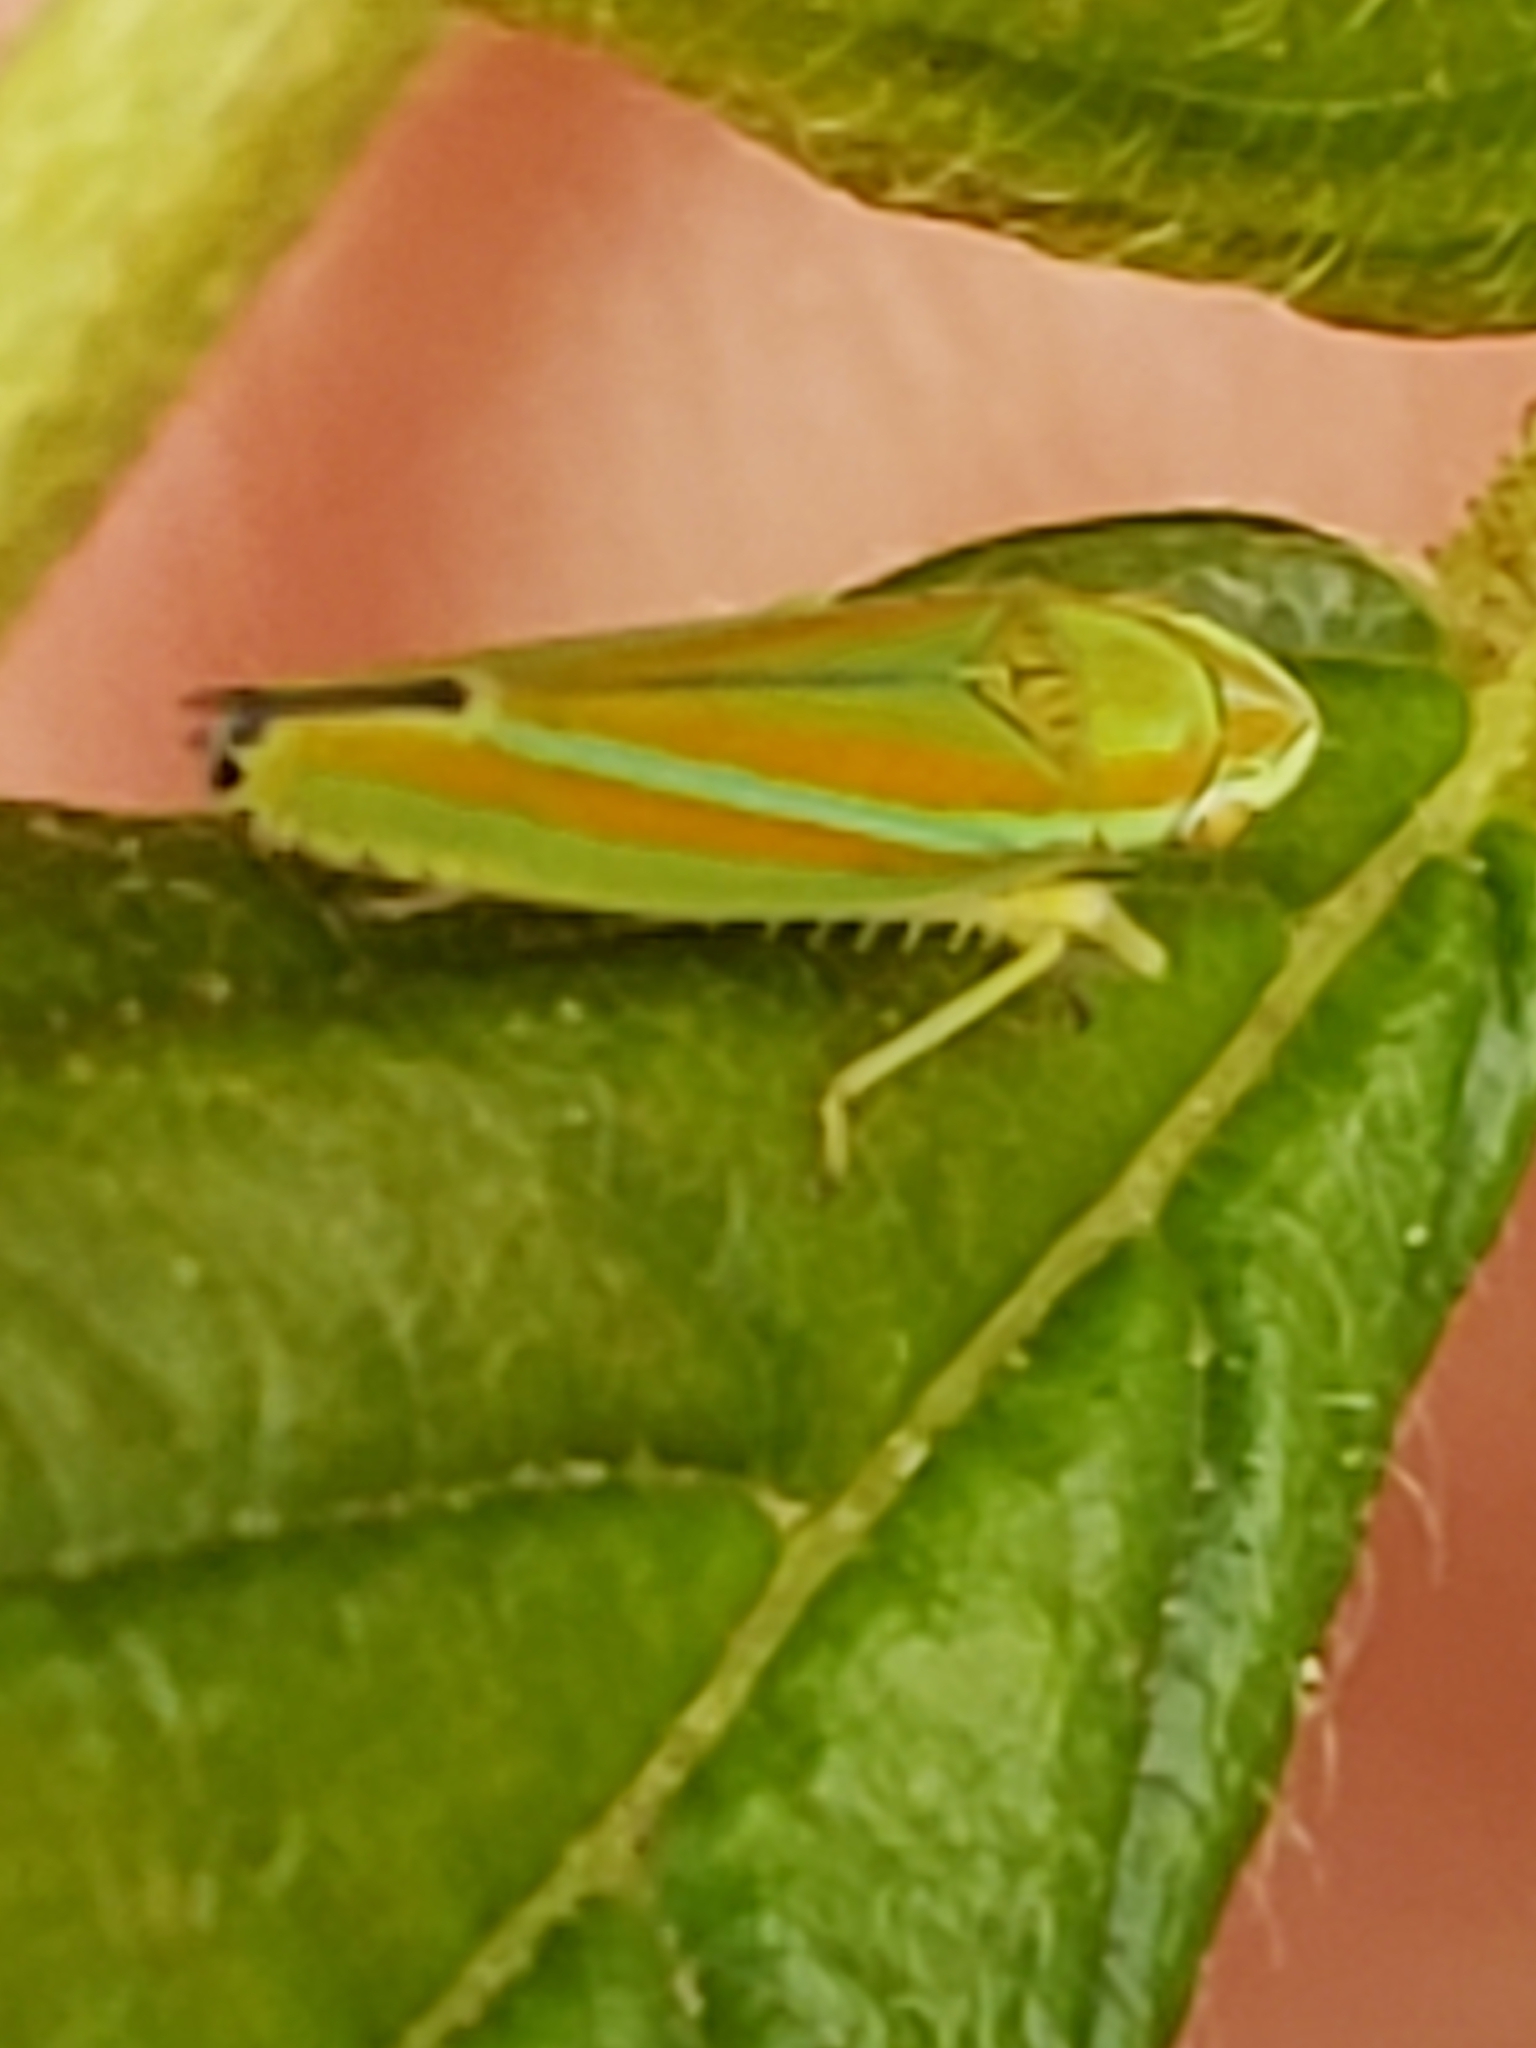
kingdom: Animalia
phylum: Arthropoda
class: Insecta
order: Hemiptera
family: Cicadellidae
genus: Graphocephala
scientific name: Graphocephala versuta
